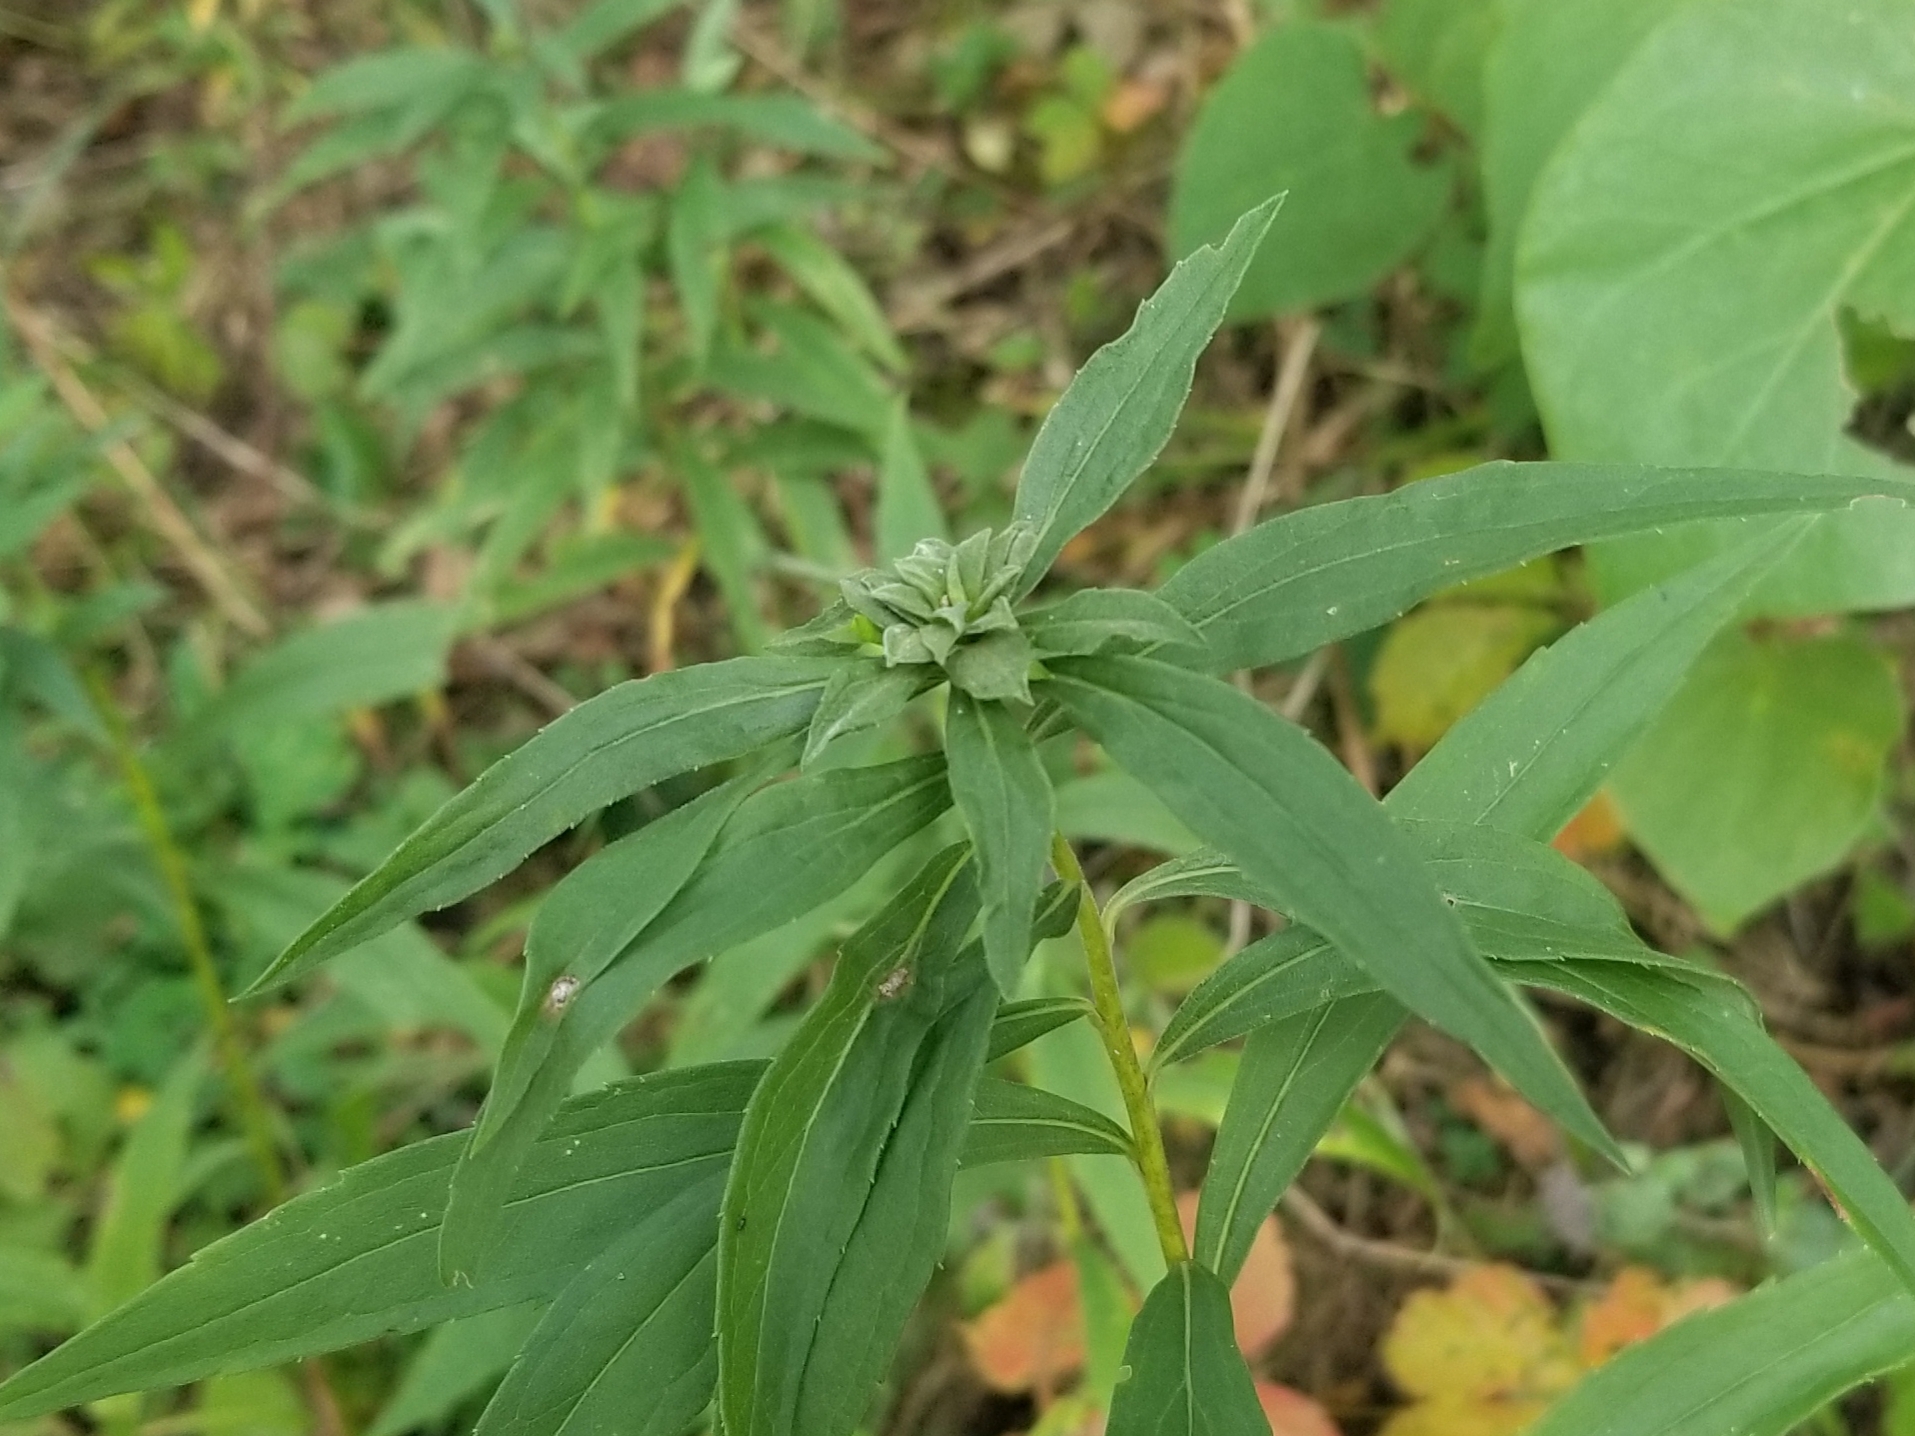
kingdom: Animalia
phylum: Arthropoda
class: Insecta
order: Diptera
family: Cecidomyiidae
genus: Asphondylia
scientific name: Asphondylia solidaginis
